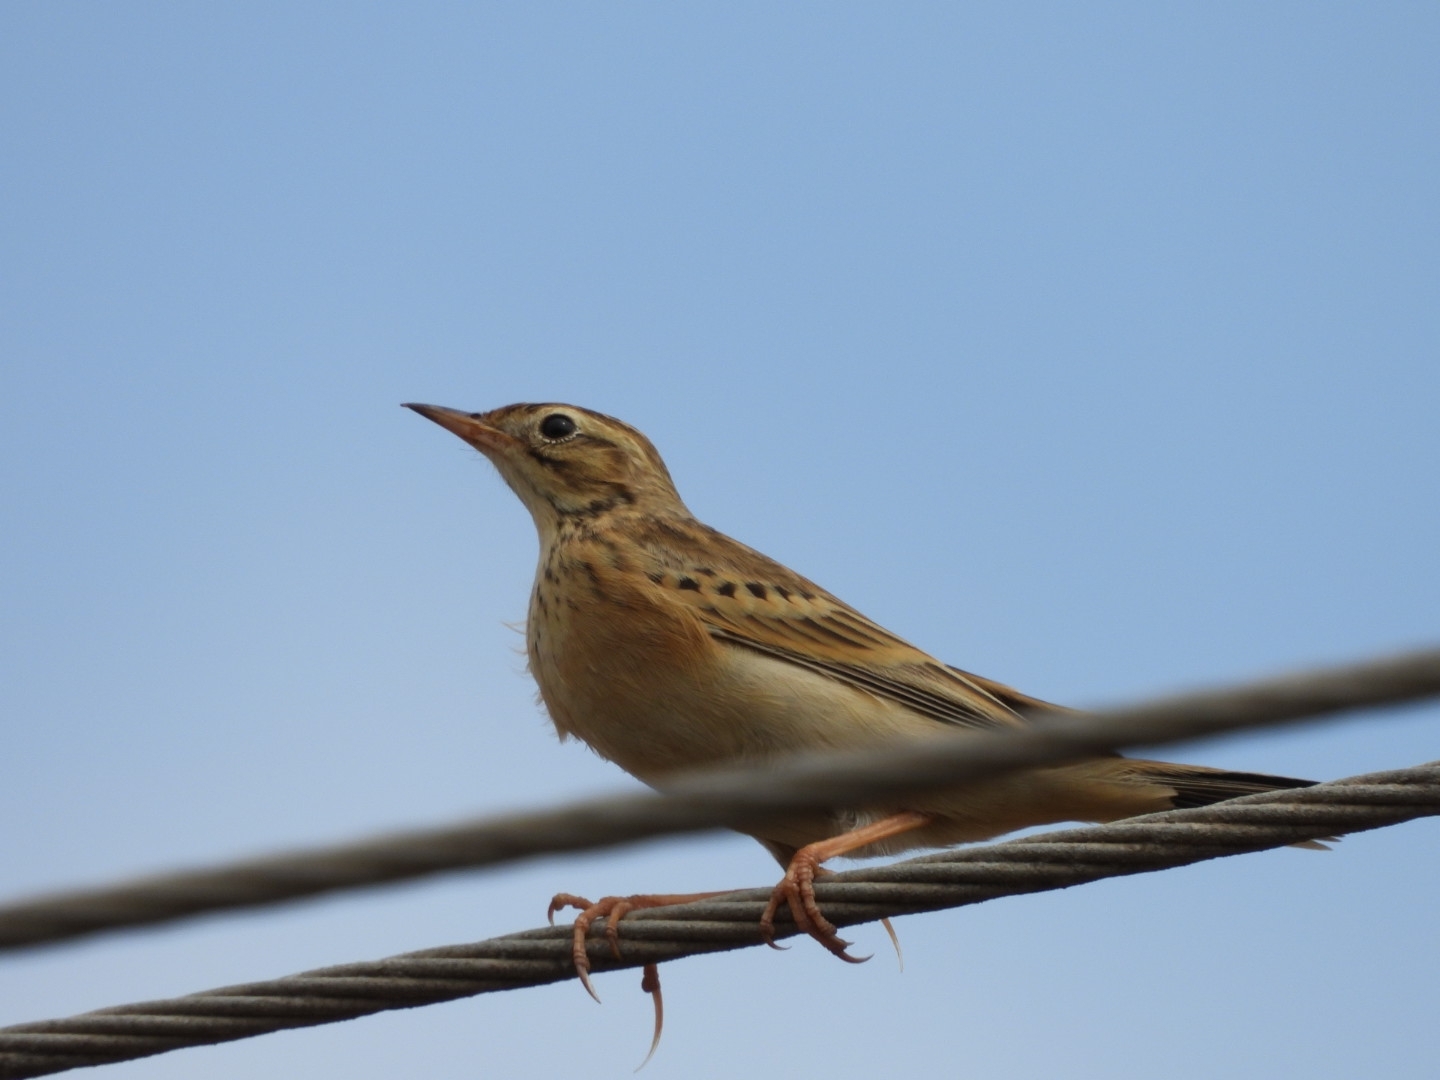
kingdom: Animalia
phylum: Chordata
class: Aves
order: Passeriformes
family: Motacillidae
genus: Anthus
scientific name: Anthus godlewskii
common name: Blyth's pipit
